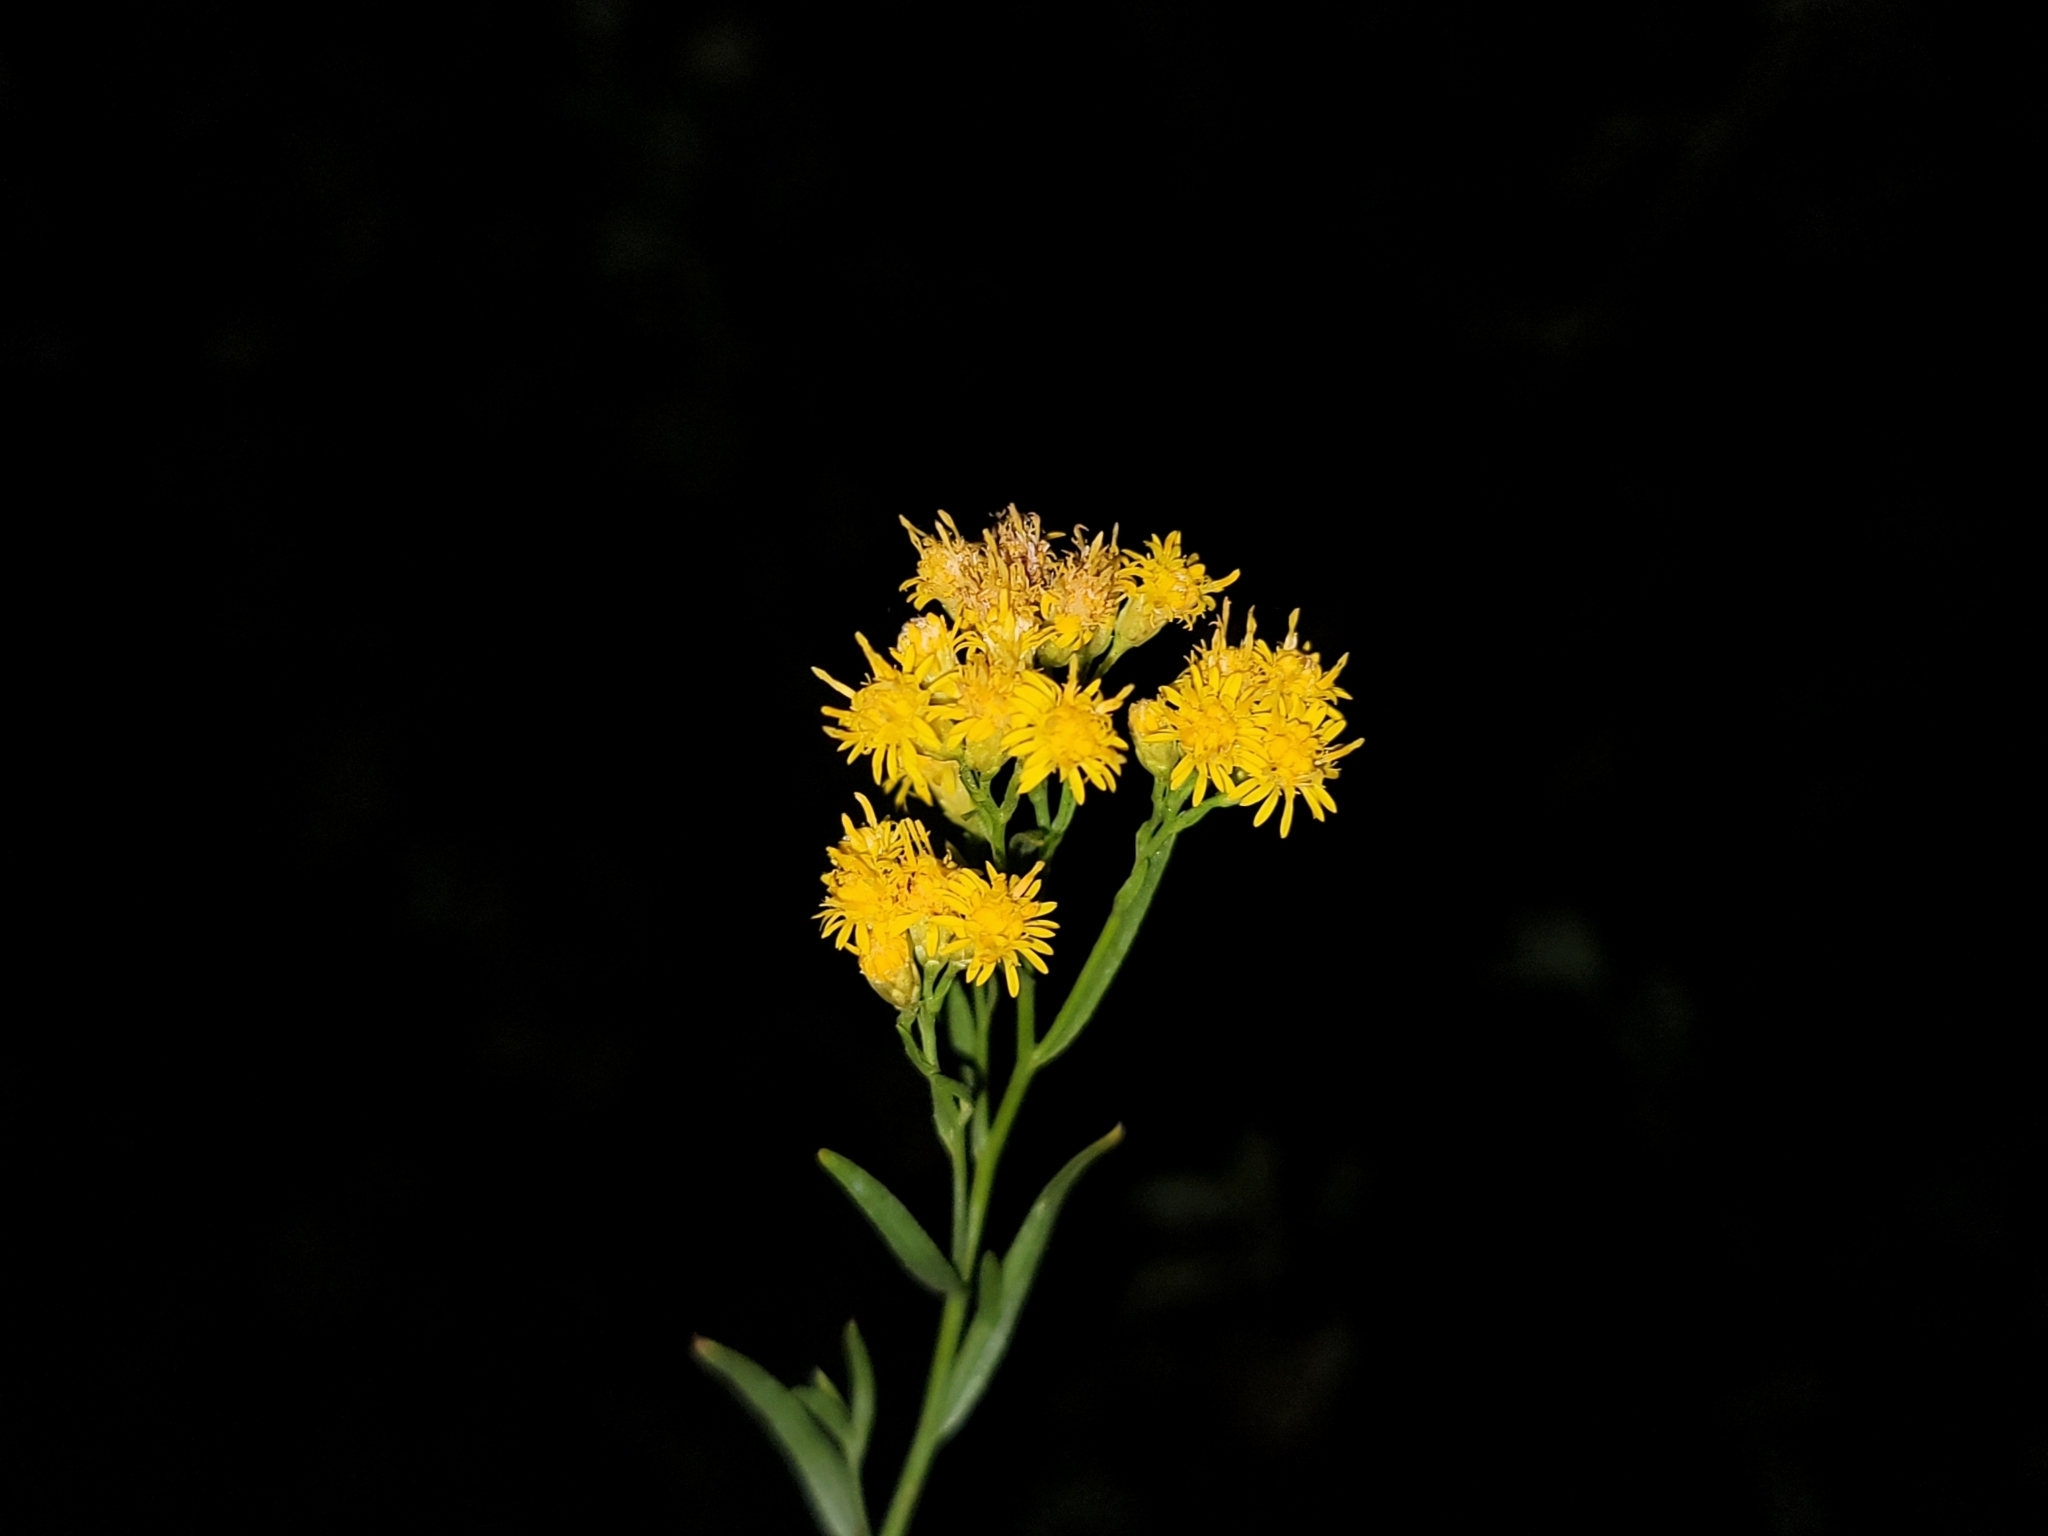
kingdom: Plantae
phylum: Tracheophyta
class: Magnoliopsida
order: Asterales
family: Asteraceae
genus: Euthamia
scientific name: Euthamia occidentalis
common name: Western goldentop
